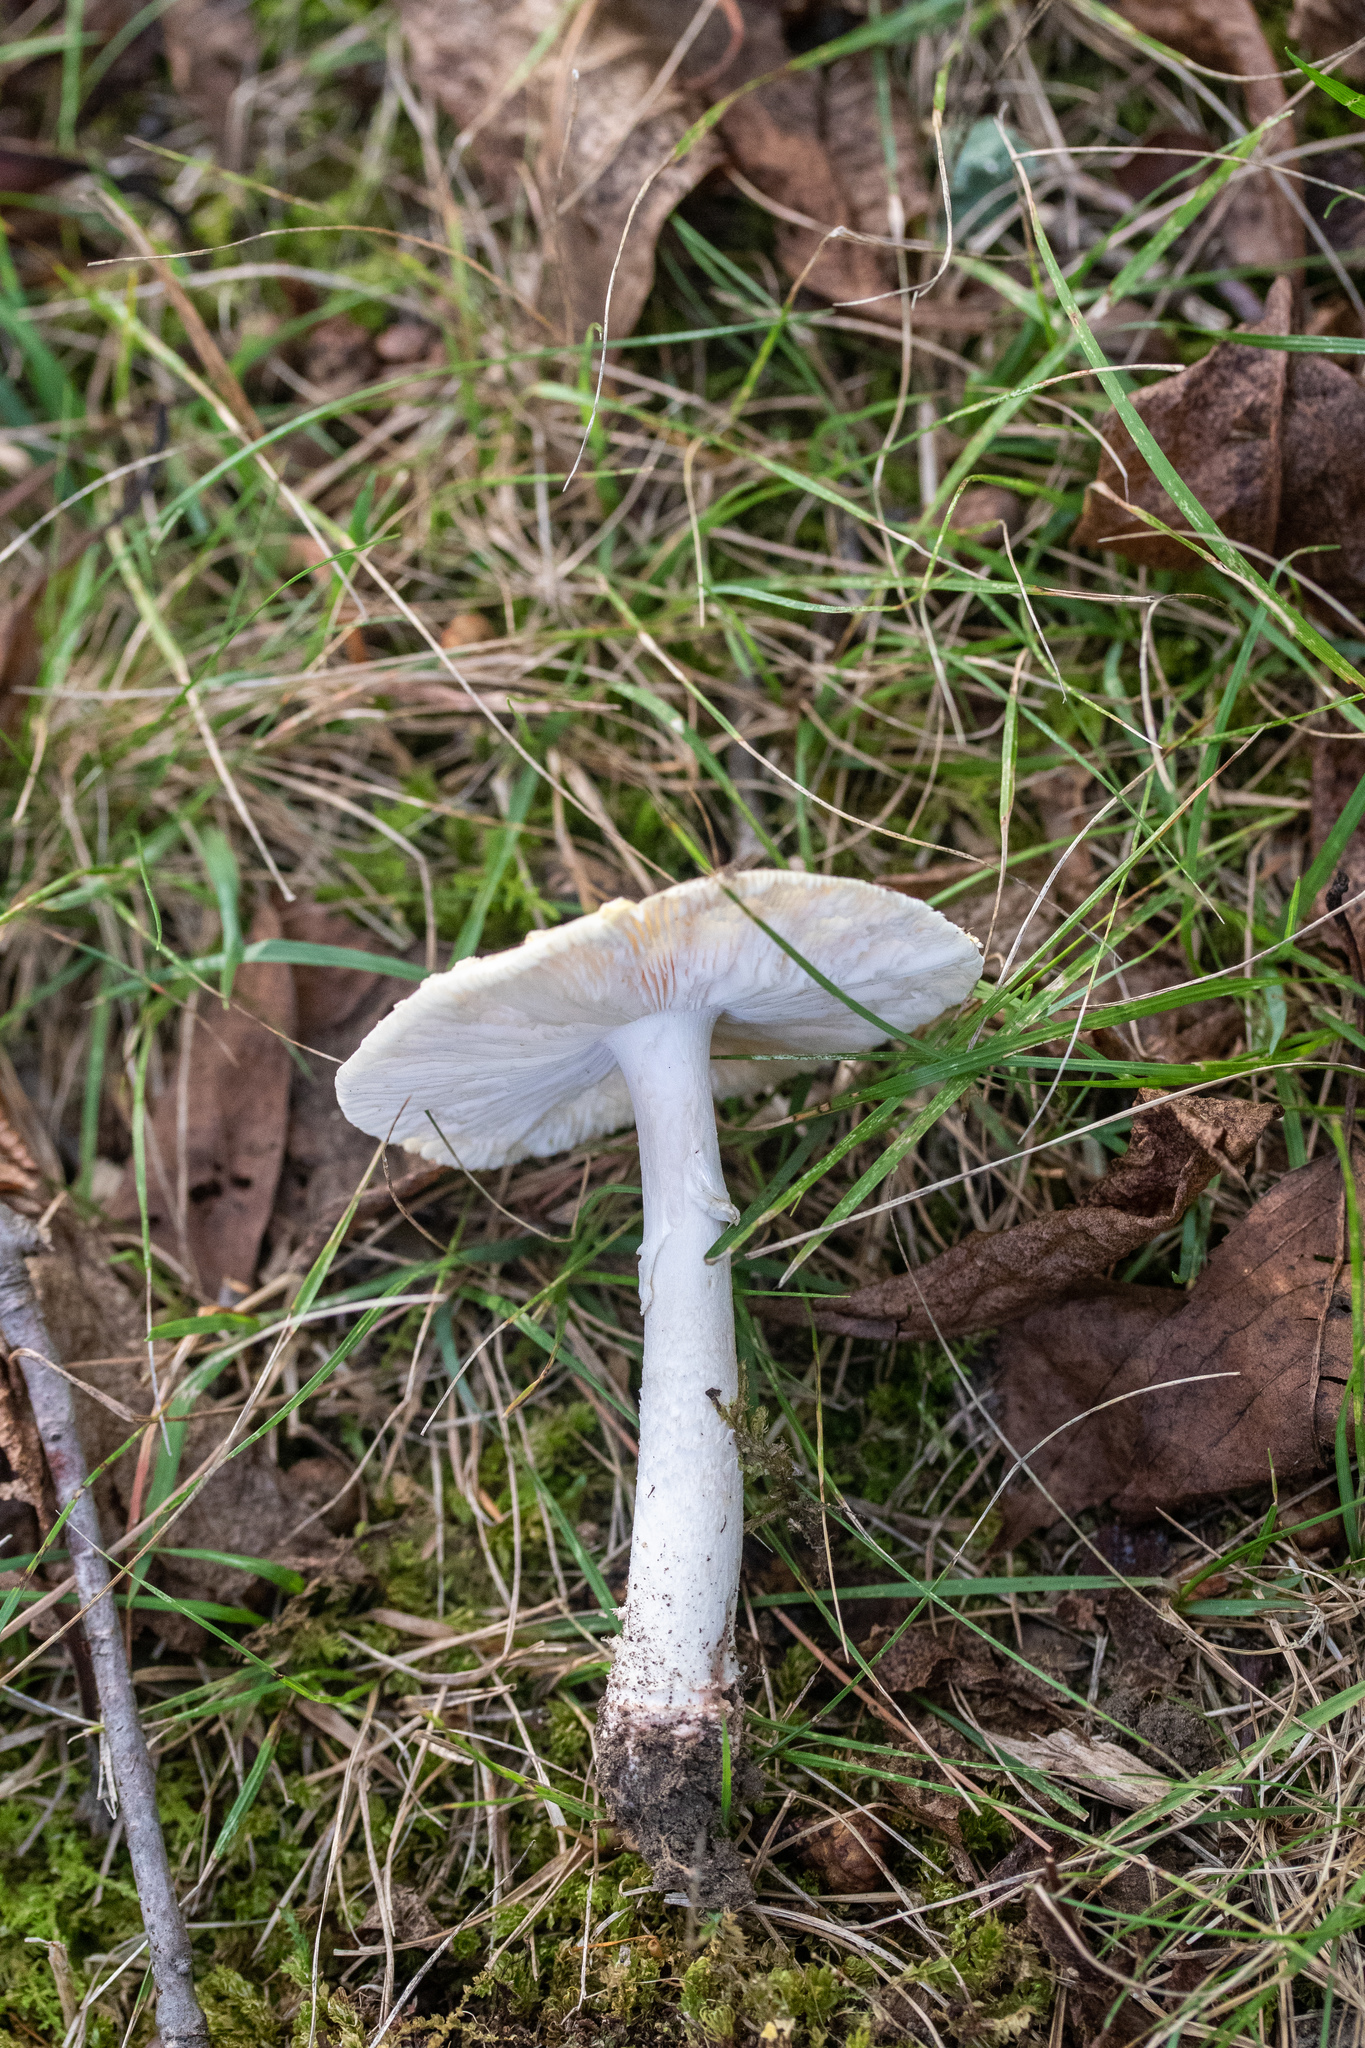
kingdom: Fungi
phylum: Basidiomycota
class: Agaricomycetes
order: Agaricales
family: Amanitaceae
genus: Amanita
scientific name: Amanita flavorubens
